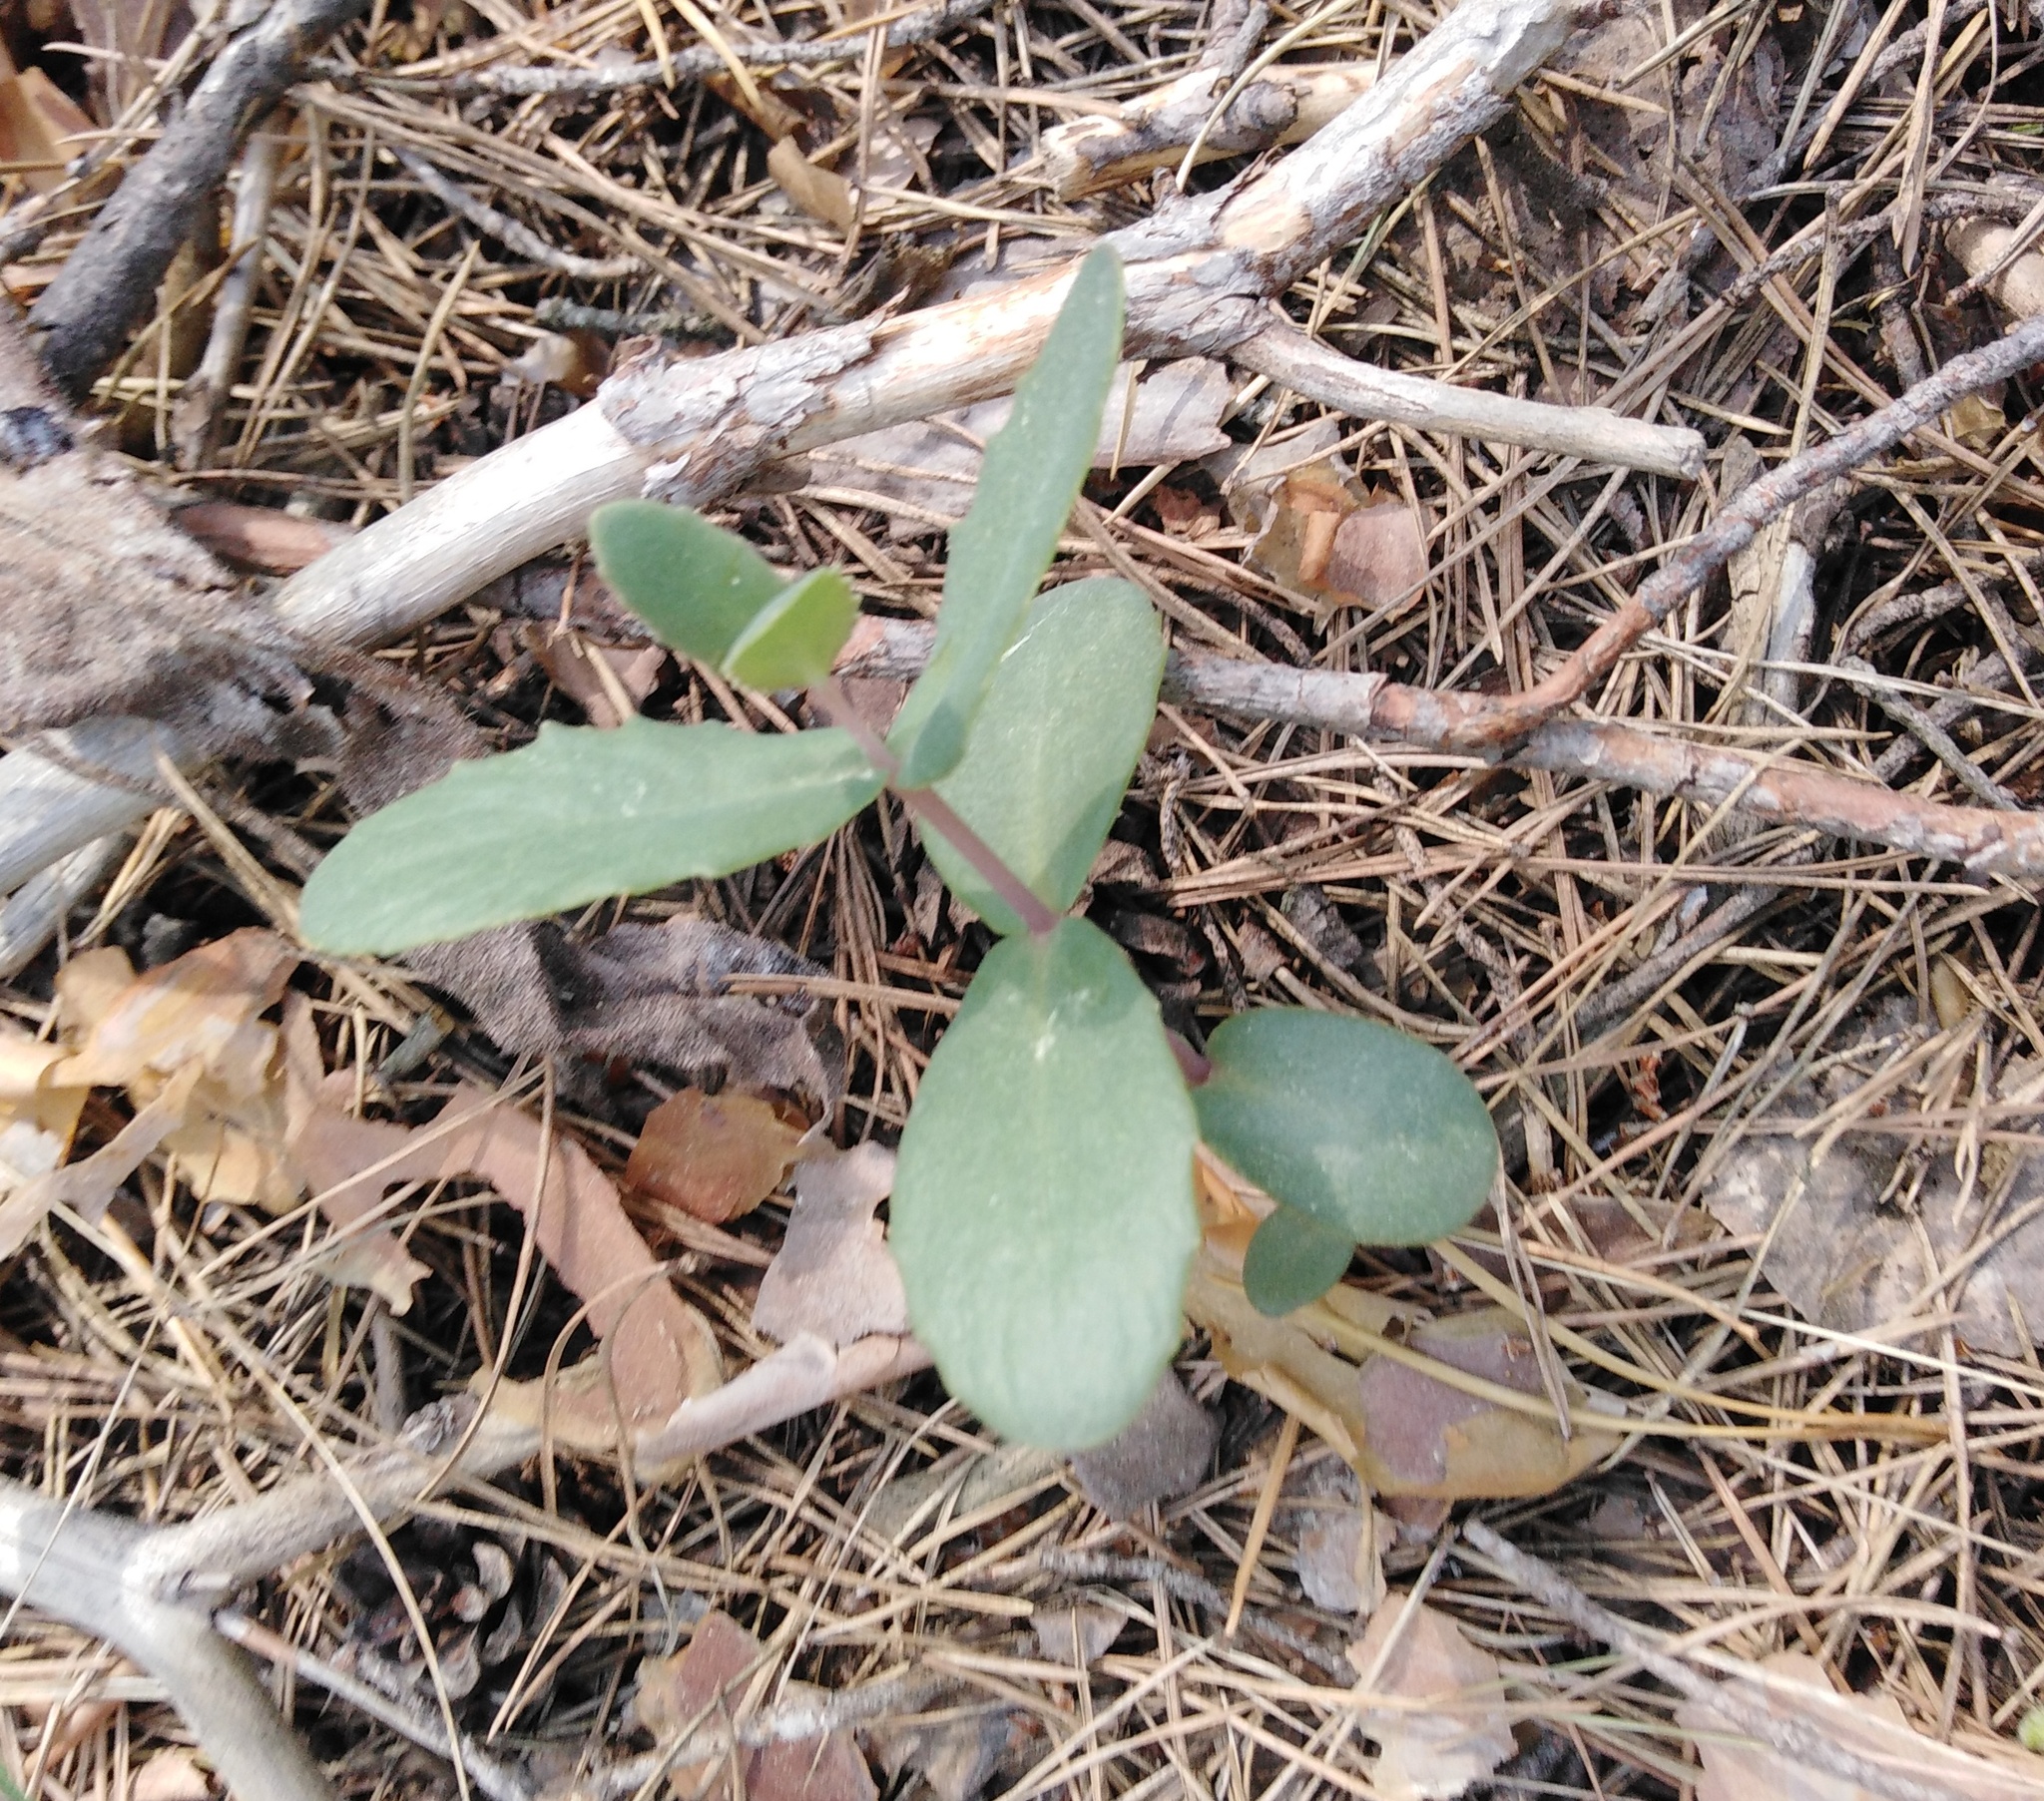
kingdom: Plantae
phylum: Tracheophyta
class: Magnoliopsida
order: Saxifragales
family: Crassulaceae
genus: Hylotelephium
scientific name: Hylotelephium maximum
